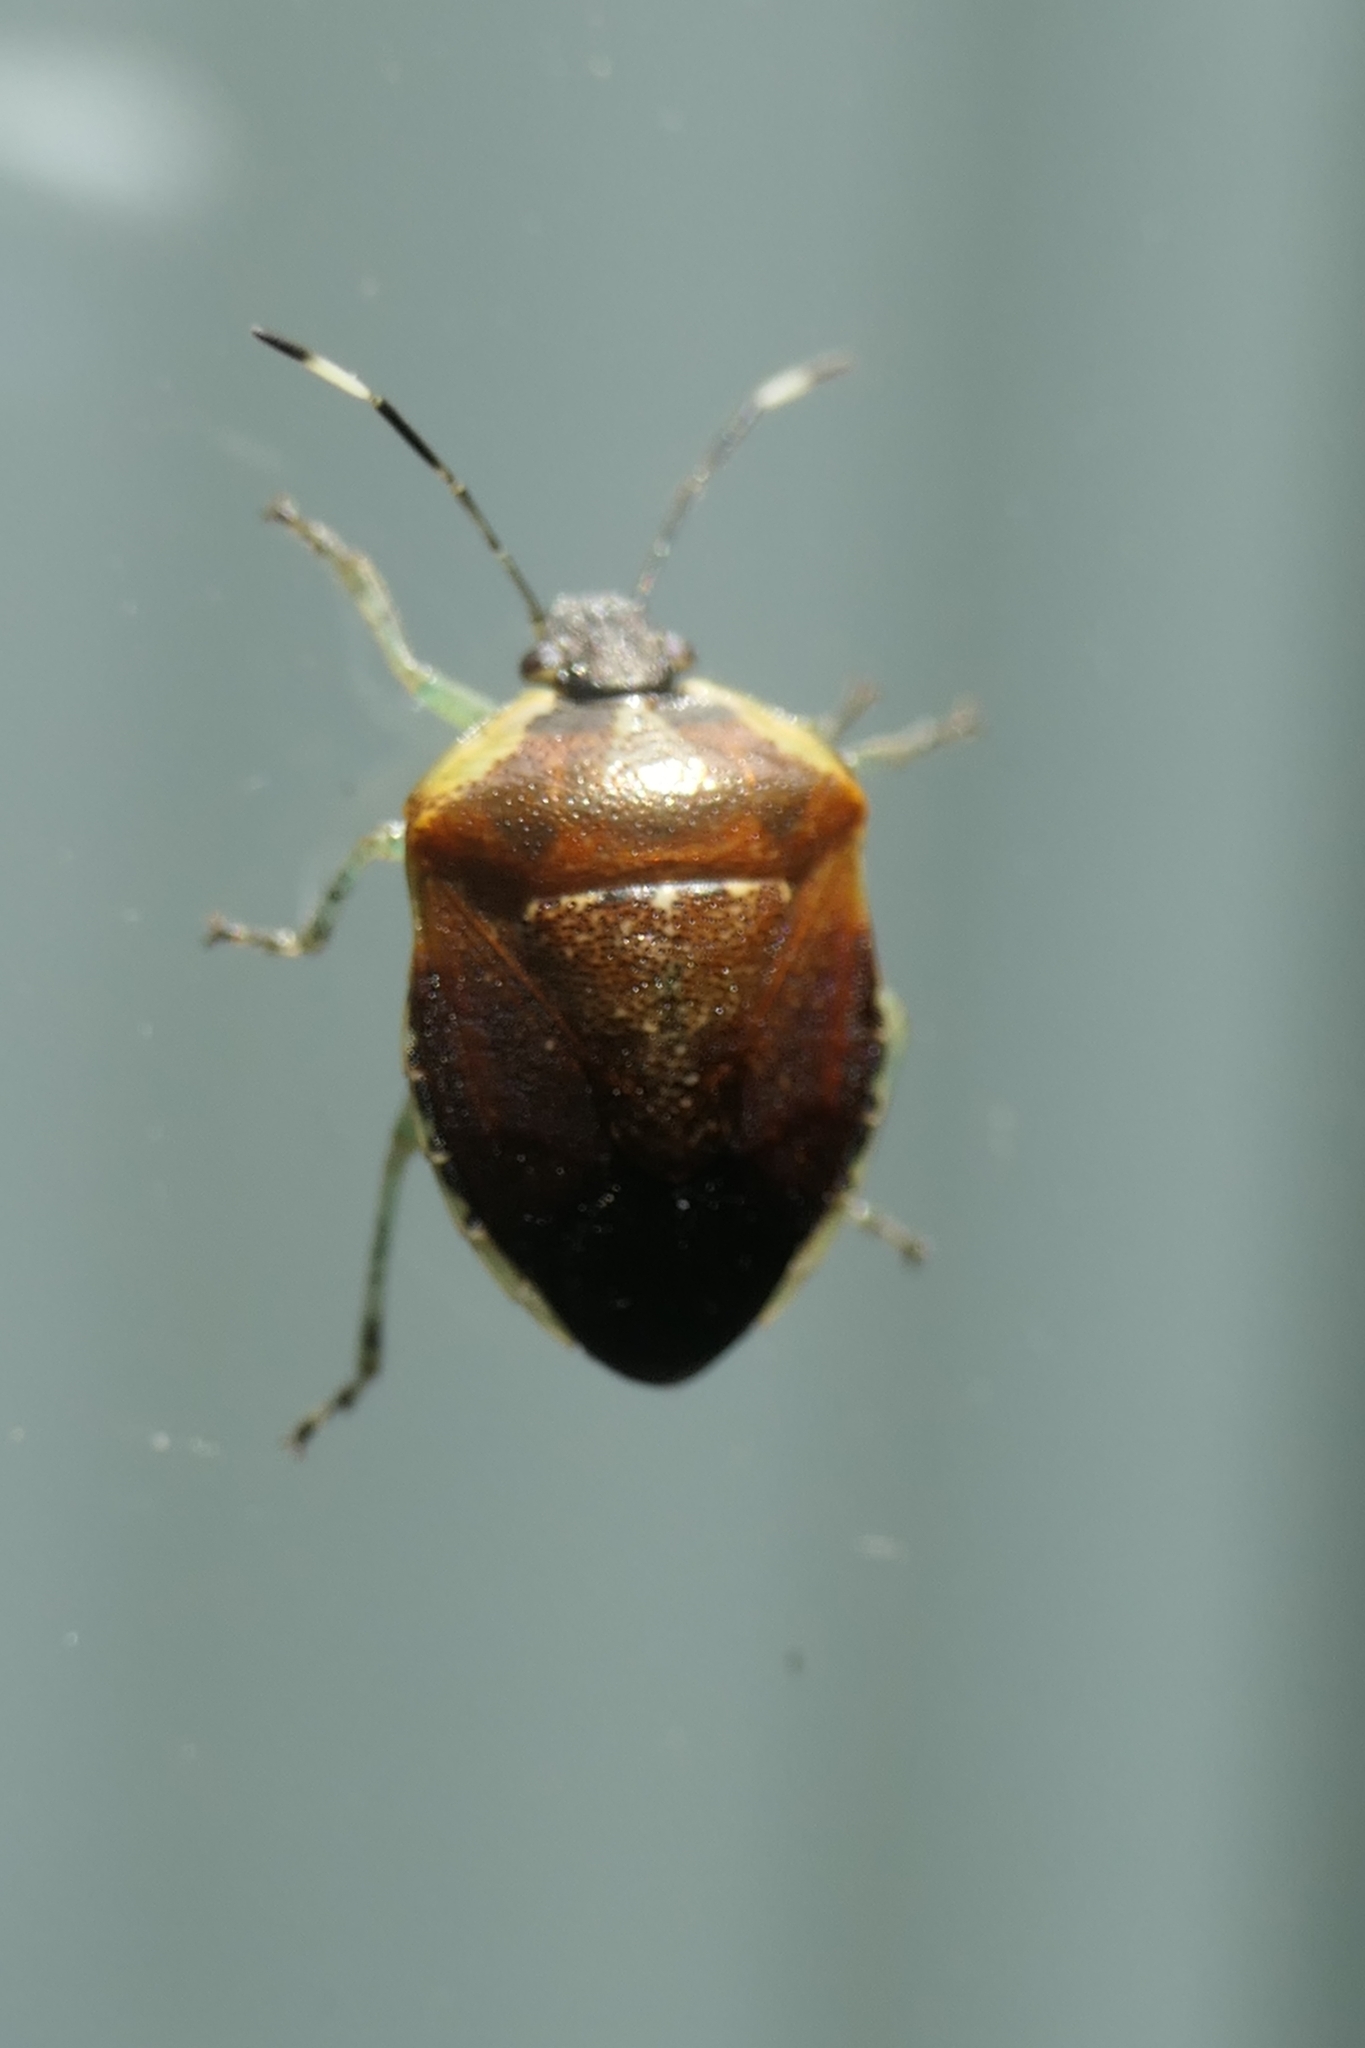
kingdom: Animalia
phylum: Arthropoda
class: Insecta
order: Hemiptera
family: Pentatomidae
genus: Monteithiella
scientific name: Monteithiella
